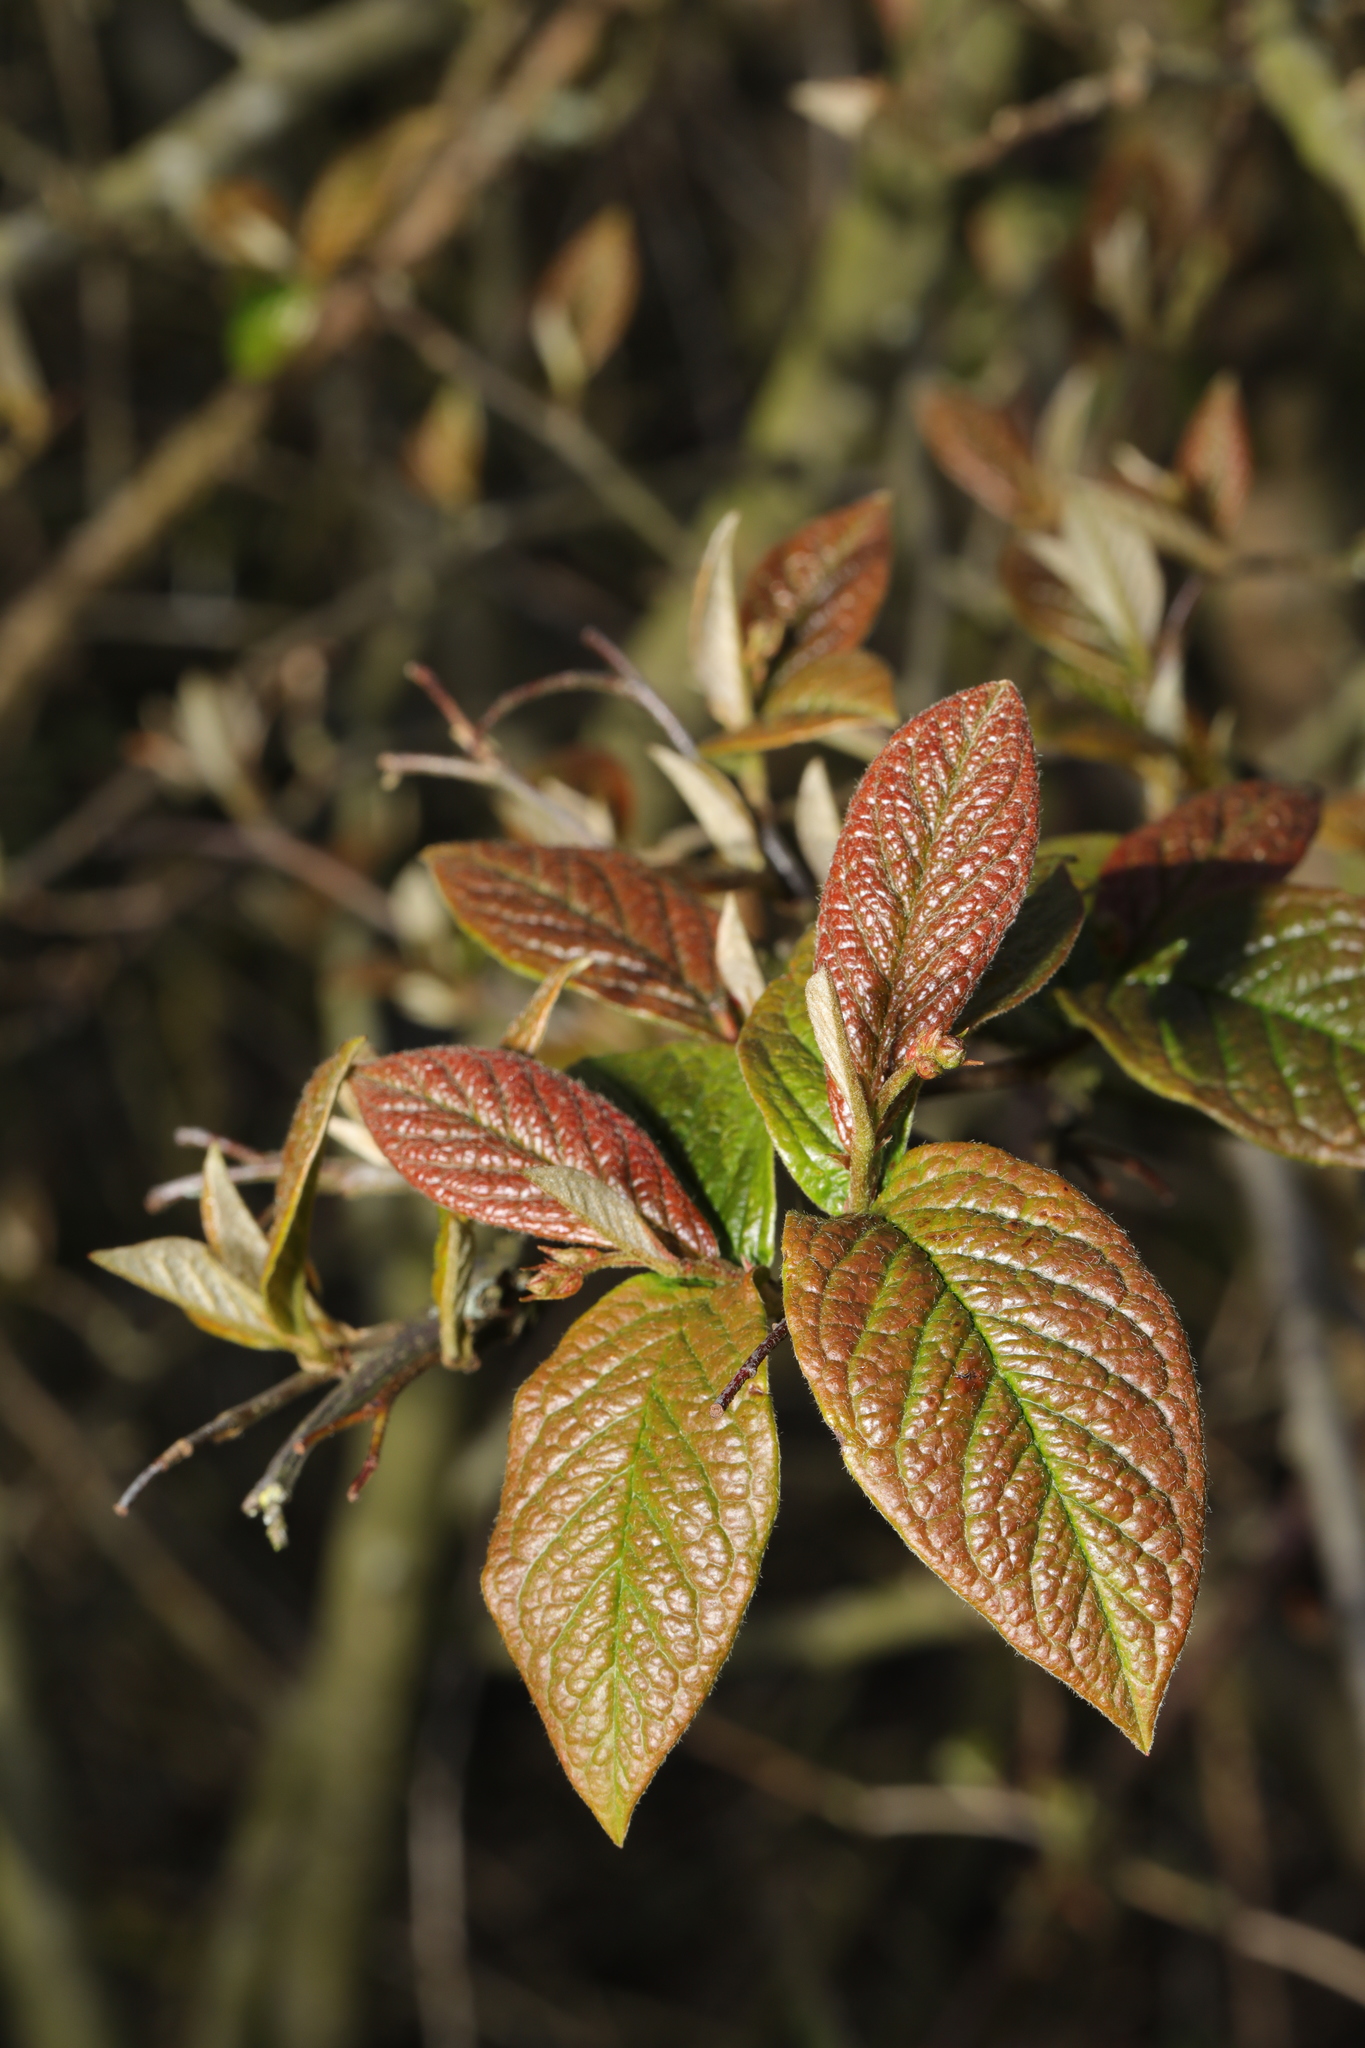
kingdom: Plantae
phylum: Tracheophyta
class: Magnoliopsida
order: Rosales
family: Rosaceae
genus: Cotoneaster
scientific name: Cotoneaster bullatus
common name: Hollyberry cotoneaster
